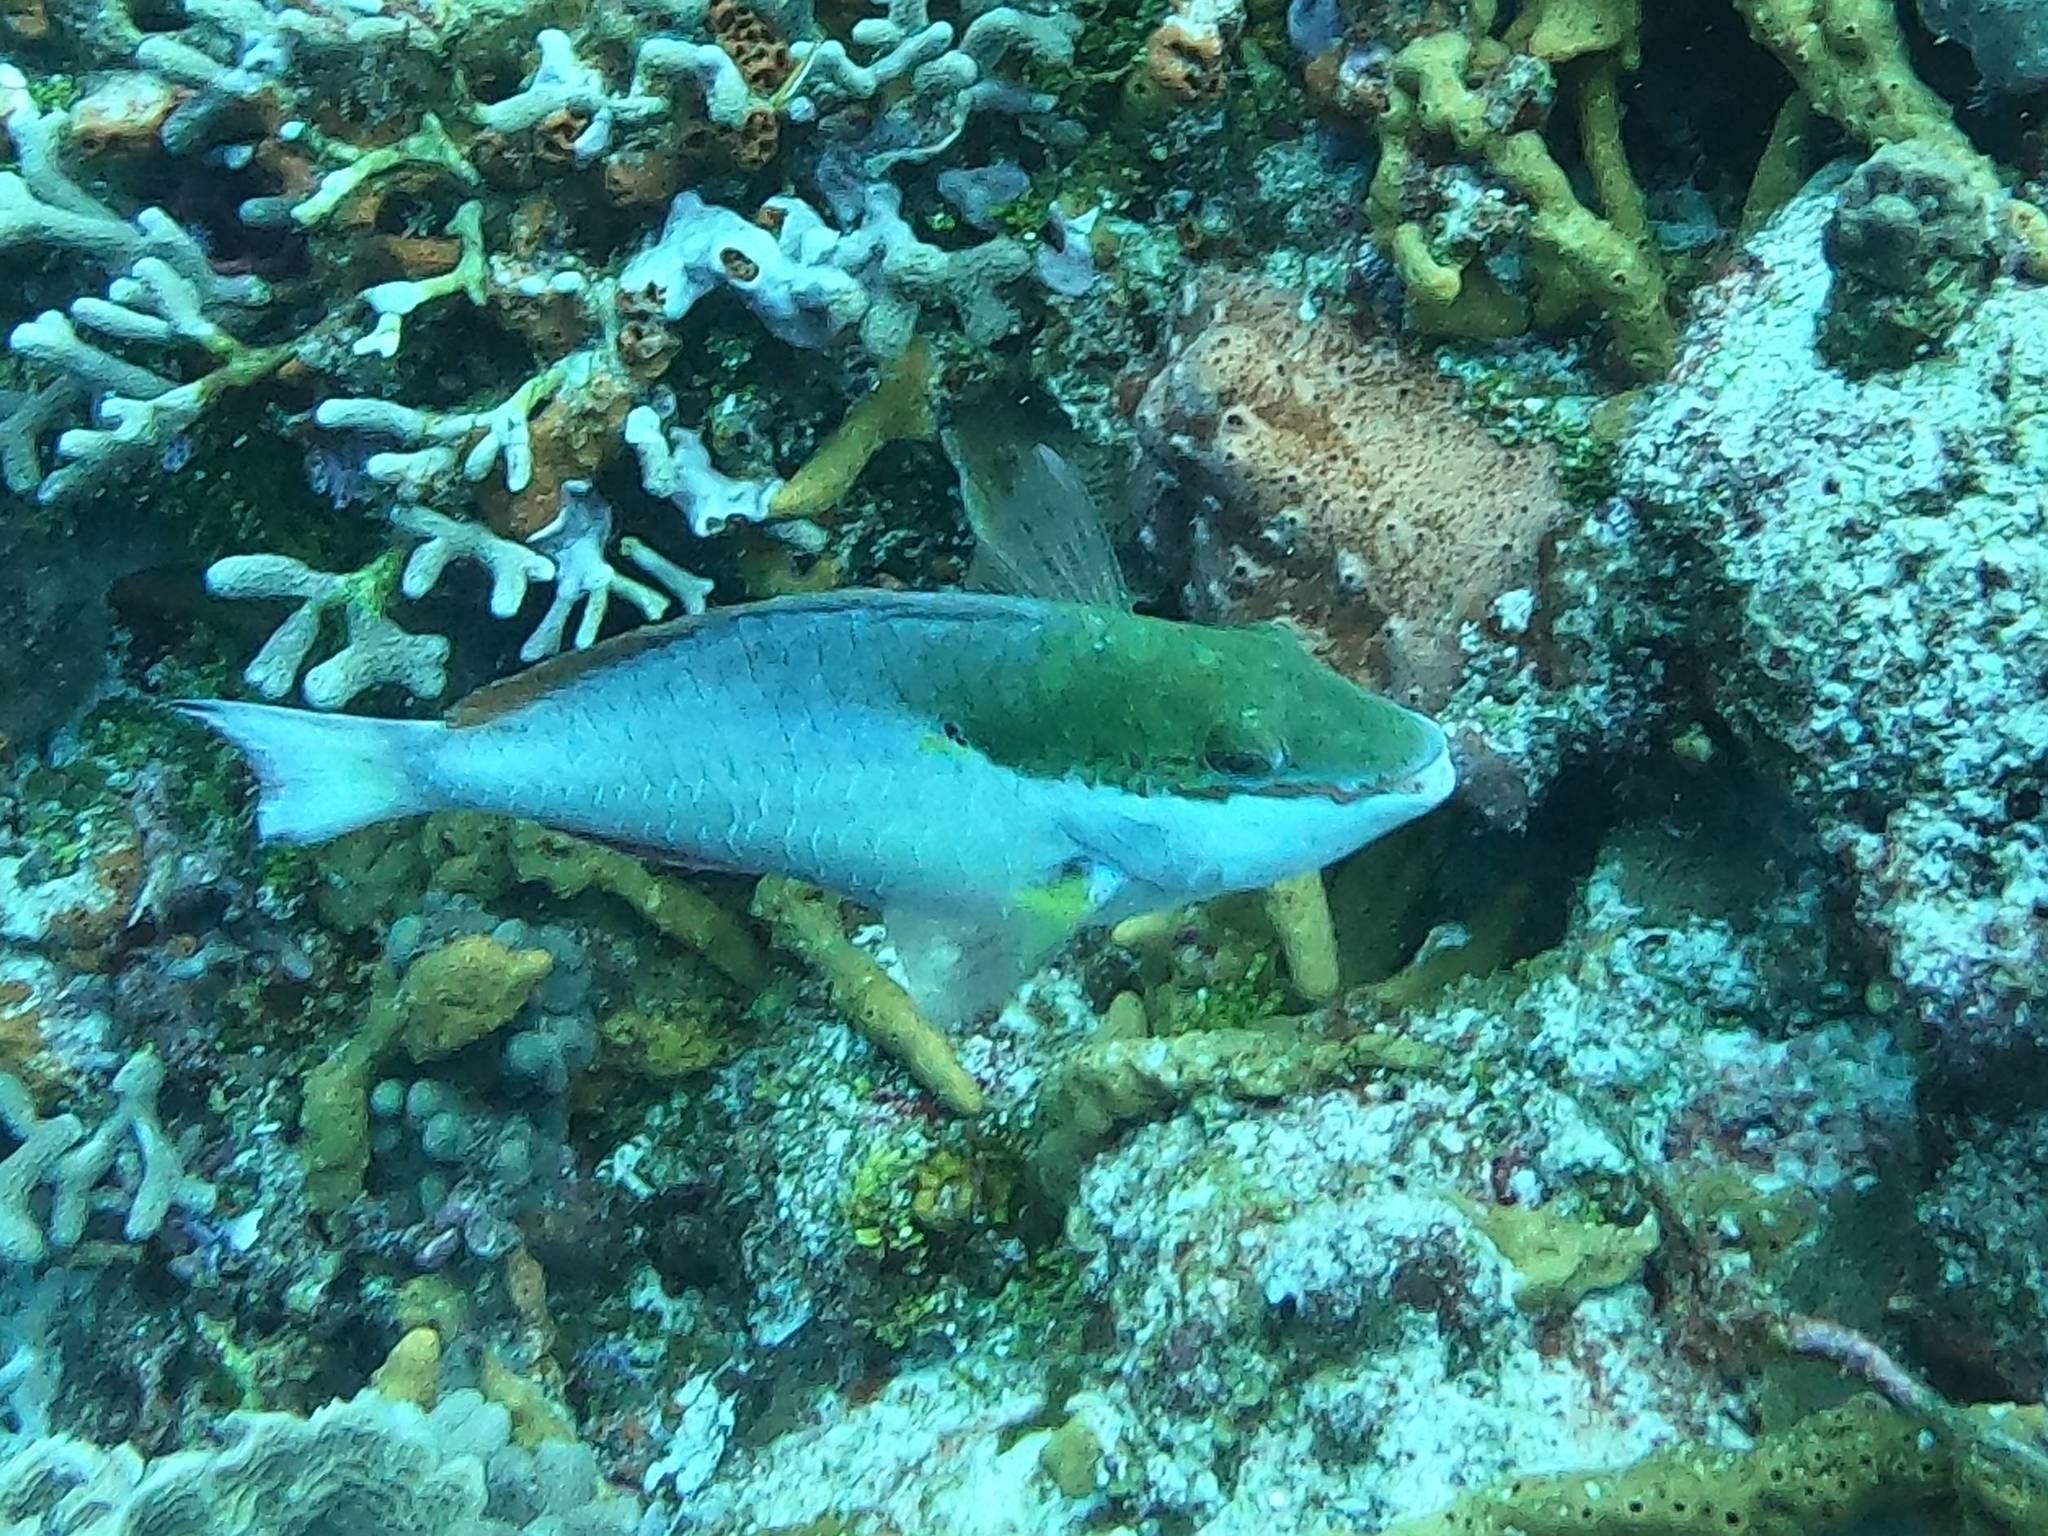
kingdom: Animalia
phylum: Chordata
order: Perciformes
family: Scaridae
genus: Sparisoma
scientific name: Sparisoma aurofrenatum
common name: Redband parrotfish
